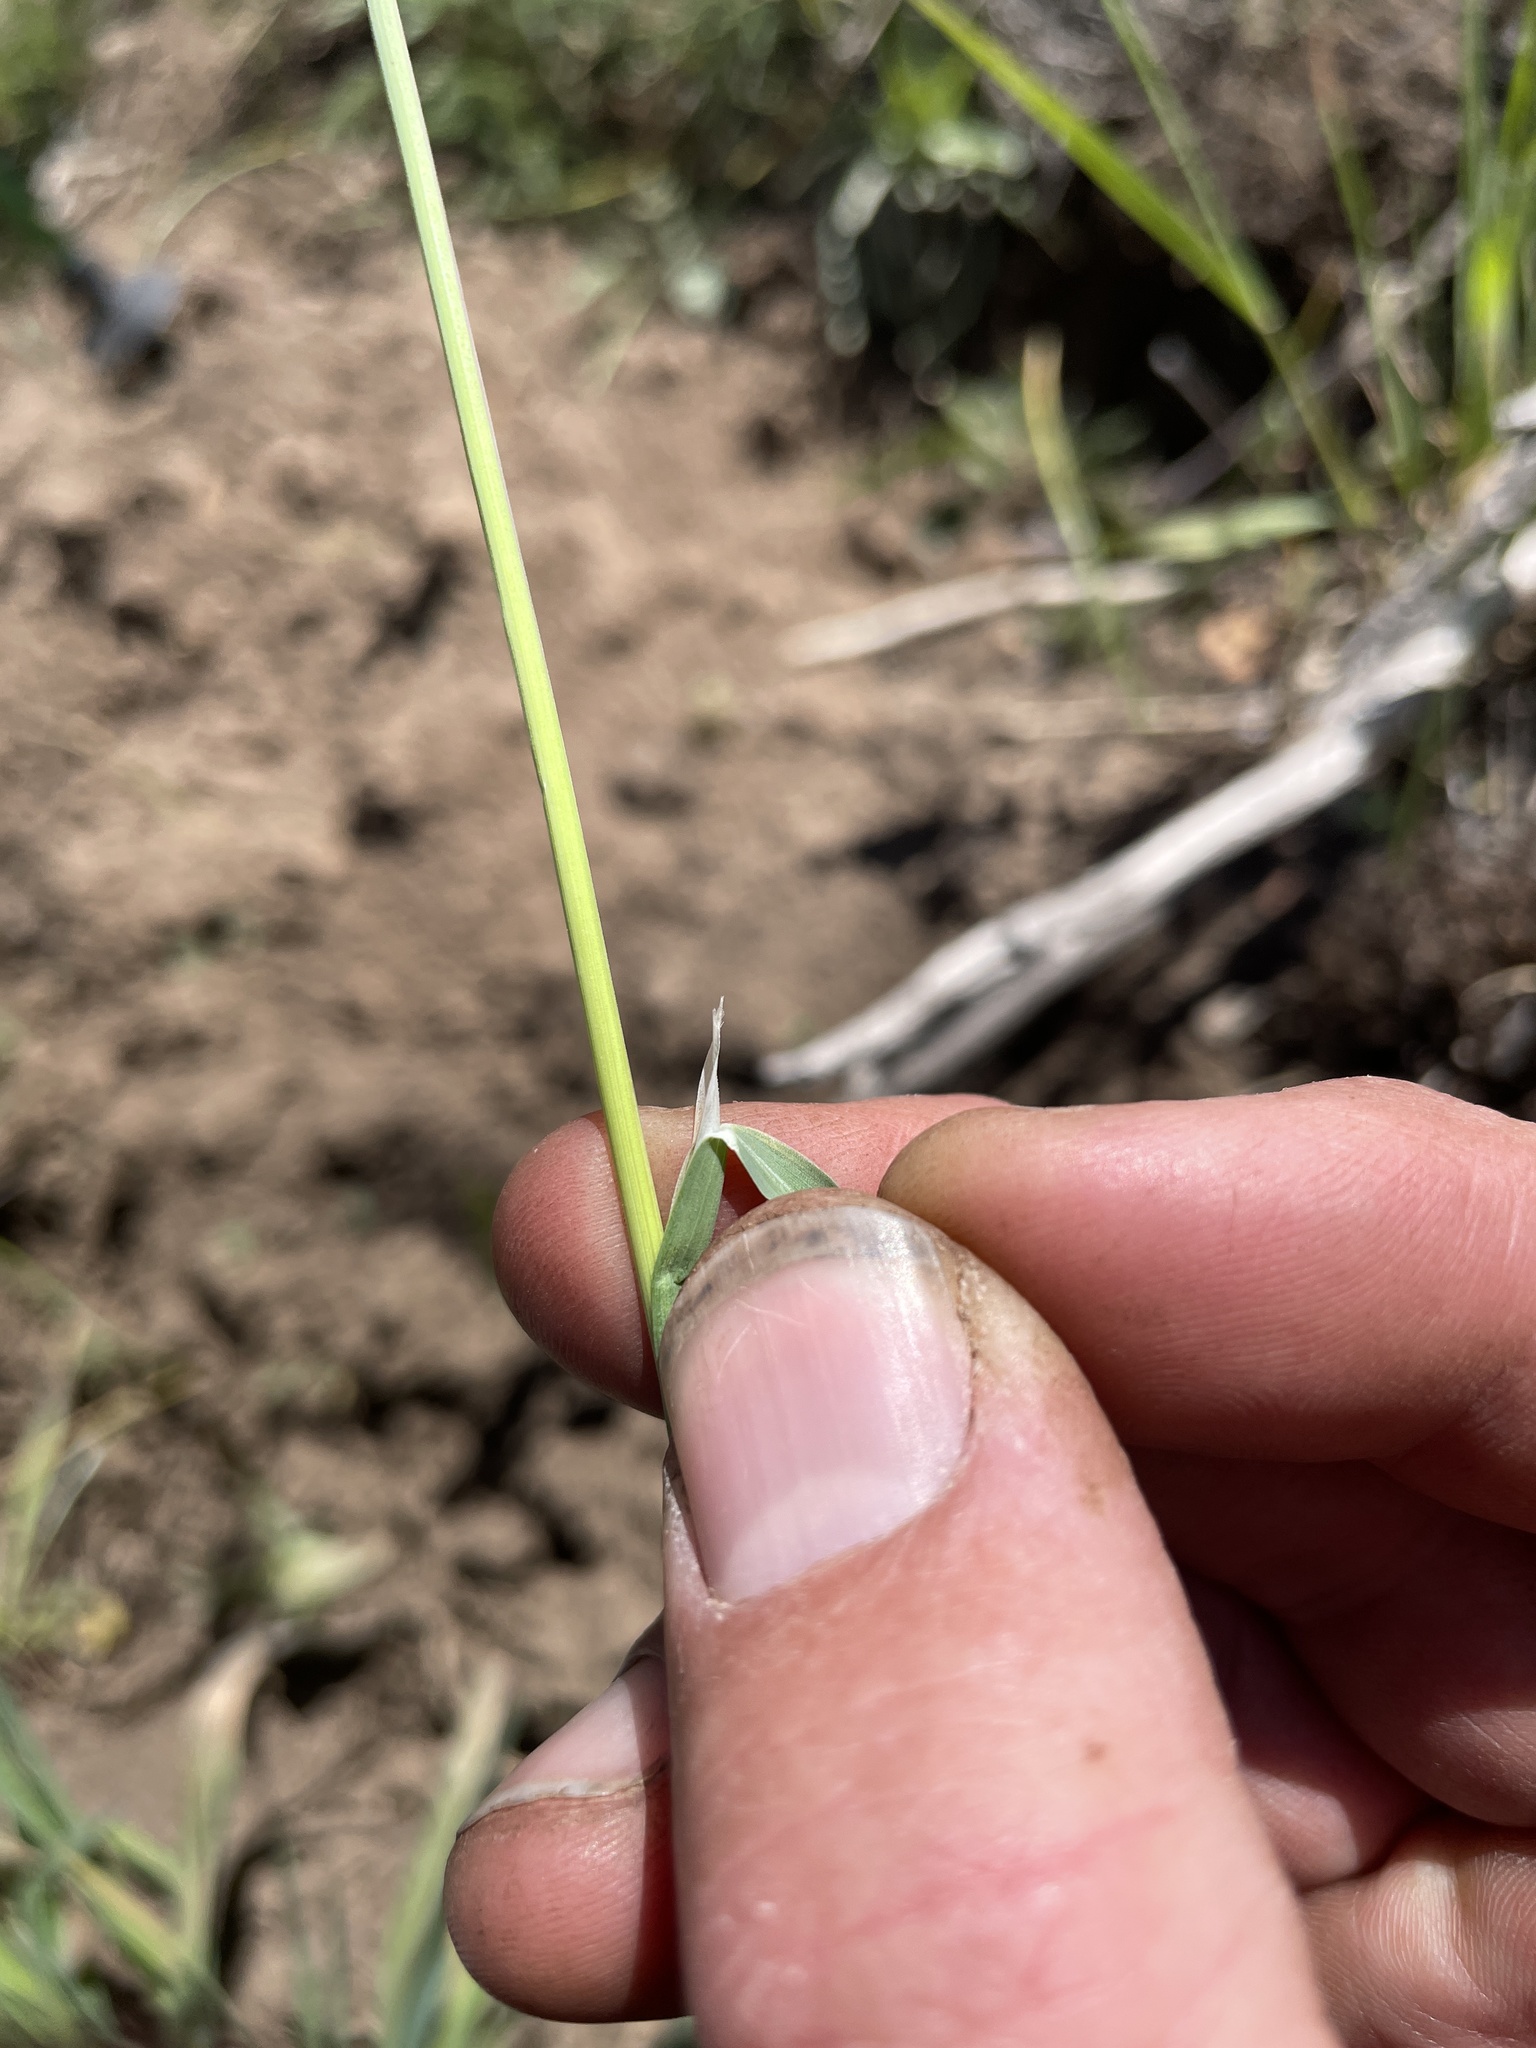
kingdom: Plantae
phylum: Tracheophyta
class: Liliopsida
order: Poales
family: Poaceae
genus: Poa
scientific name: Poa fendleriana
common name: Mutton bluegrass
